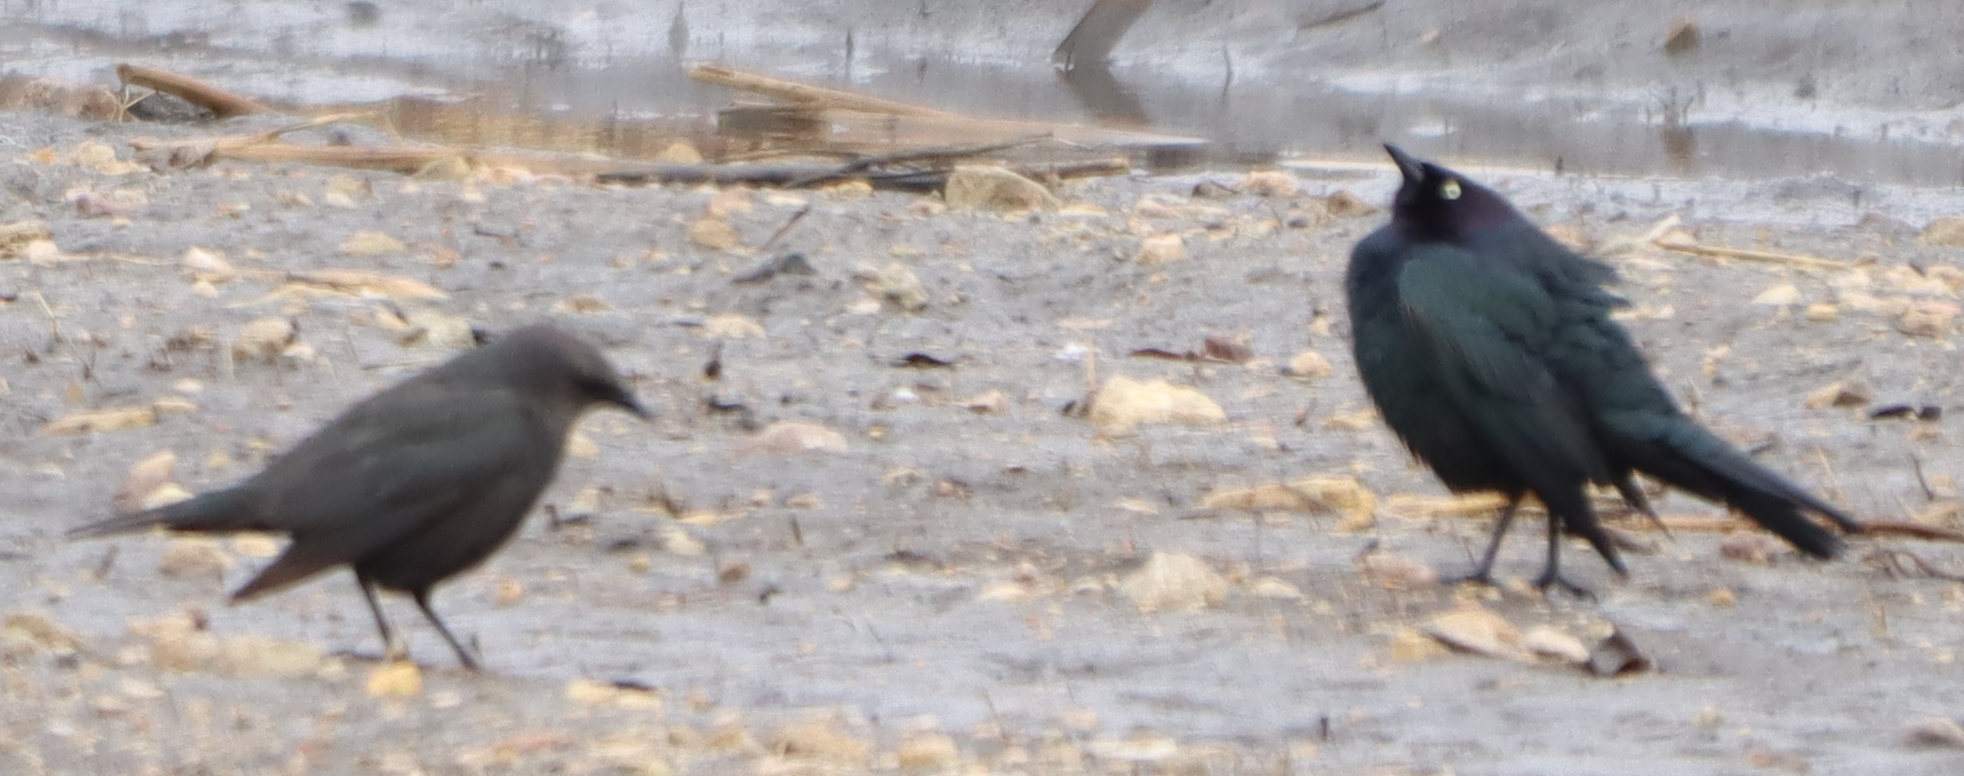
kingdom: Animalia
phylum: Chordata
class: Aves
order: Passeriformes
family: Icteridae
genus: Euphagus
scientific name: Euphagus cyanocephalus
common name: Brewer's blackbird
